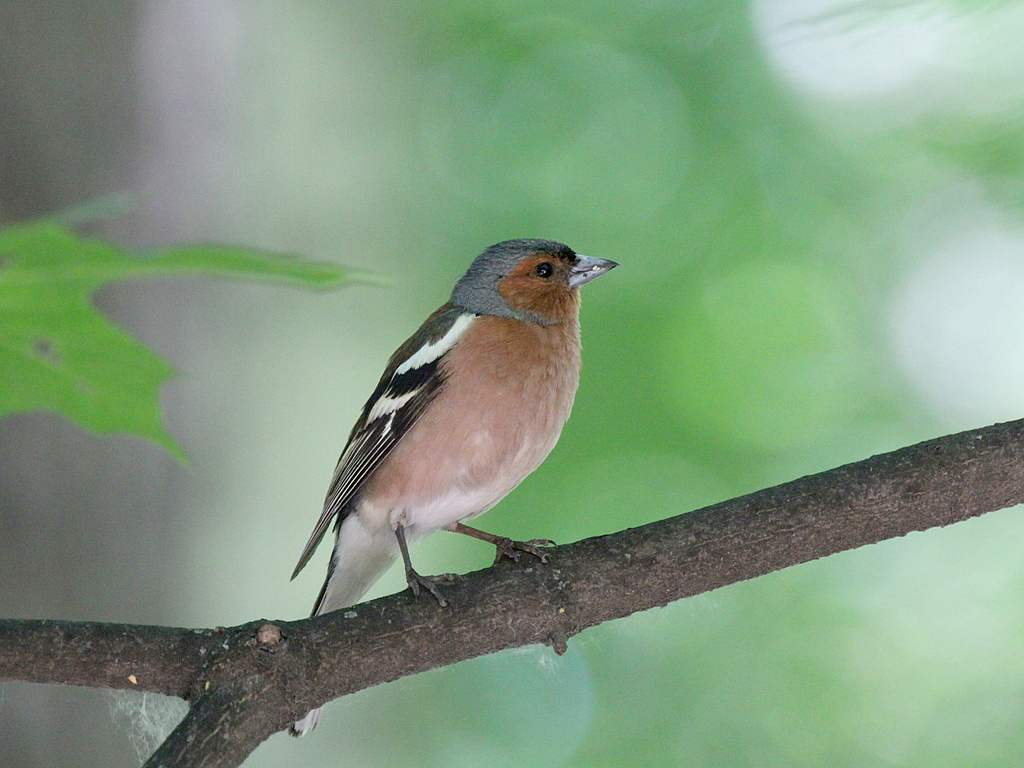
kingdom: Animalia
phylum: Chordata
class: Aves
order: Passeriformes
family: Fringillidae
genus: Fringilla
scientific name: Fringilla coelebs
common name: Common chaffinch
